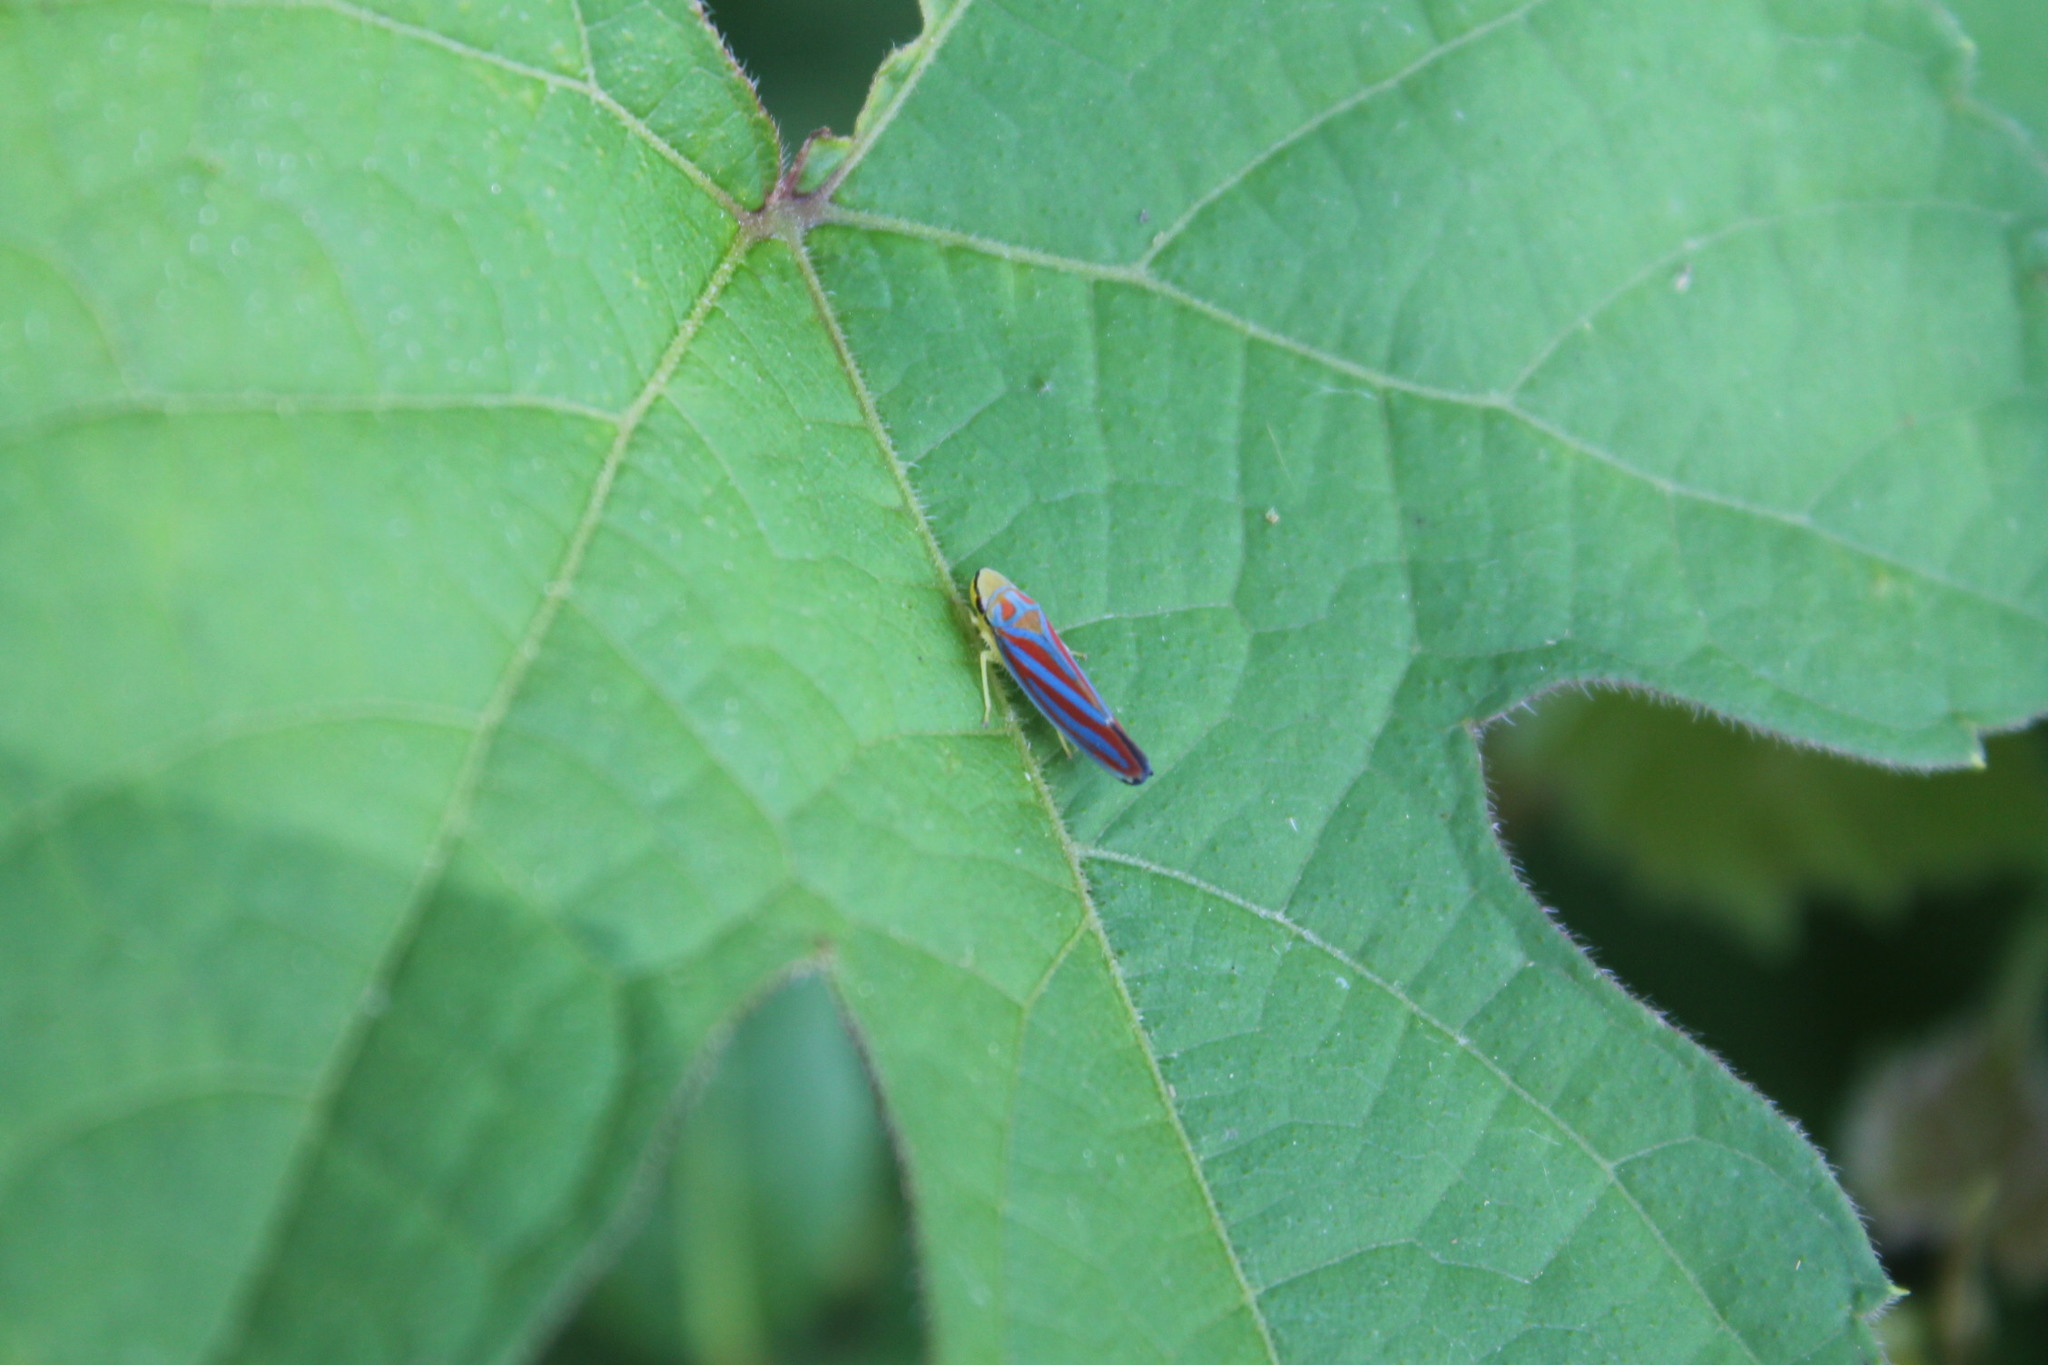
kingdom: Animalia
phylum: Arthropoda
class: Insecta
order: Hemiptera
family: Cicadellidae
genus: Graphocephala
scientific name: Graphocephala coccinea
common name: Candy-striped leafhopper
